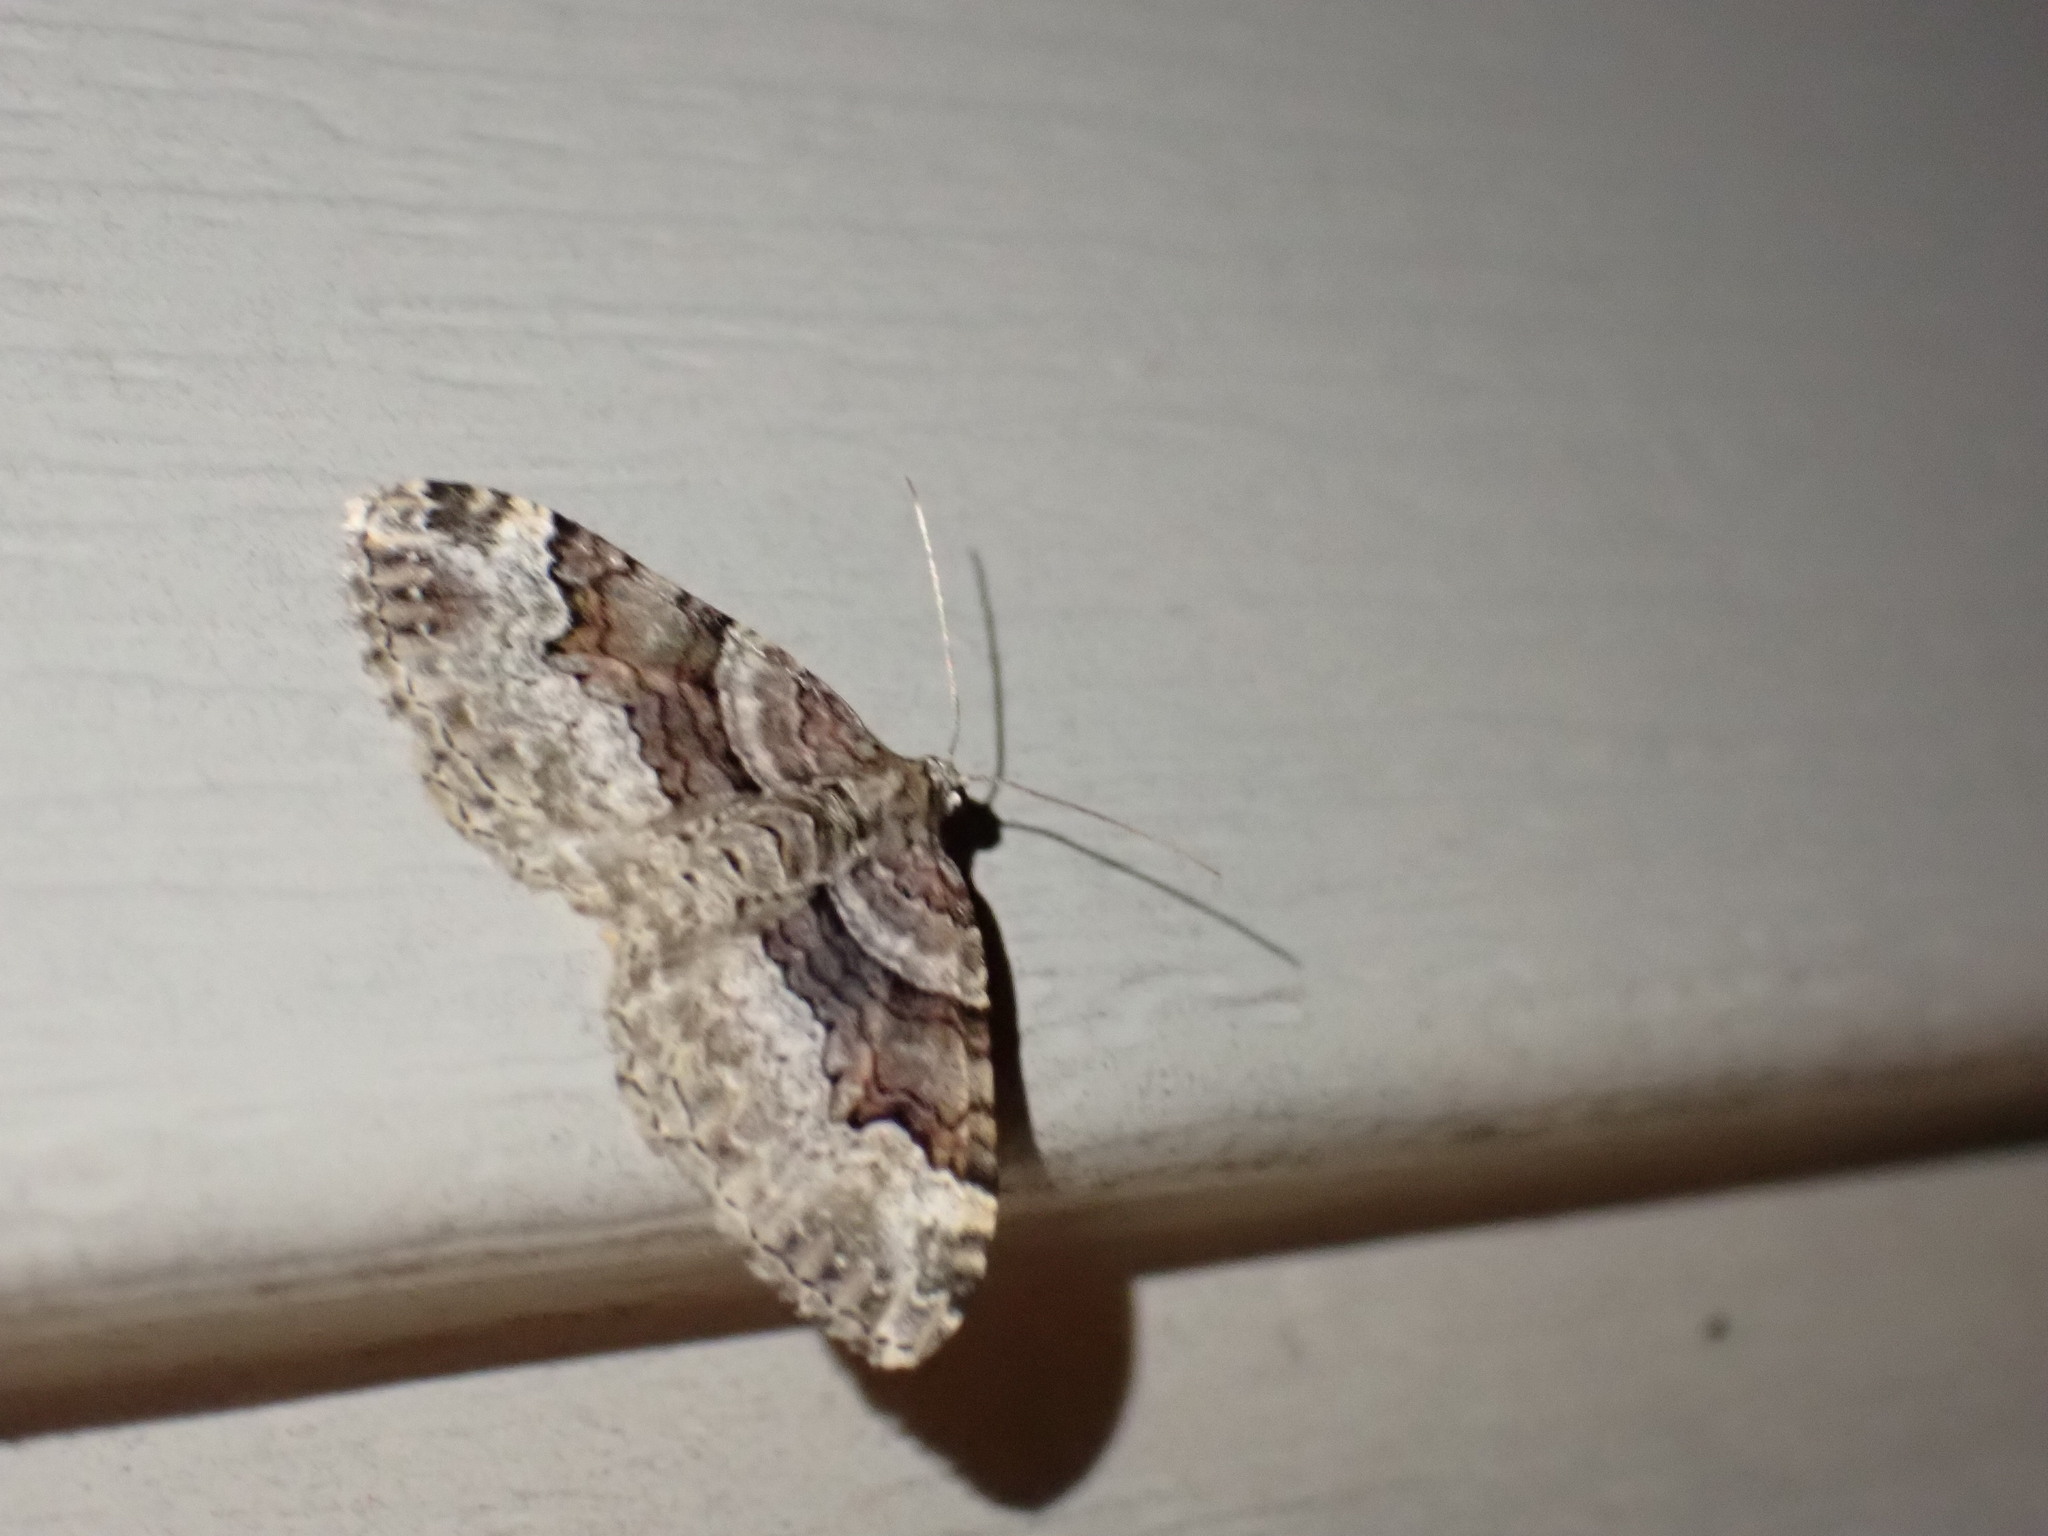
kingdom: Animalia
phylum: Arthropoda
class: Insecta
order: Lepidoptera
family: Geometridae
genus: Xanthorhoe
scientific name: Xanthorhoe lacustrata
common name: Toothed brown carpet
